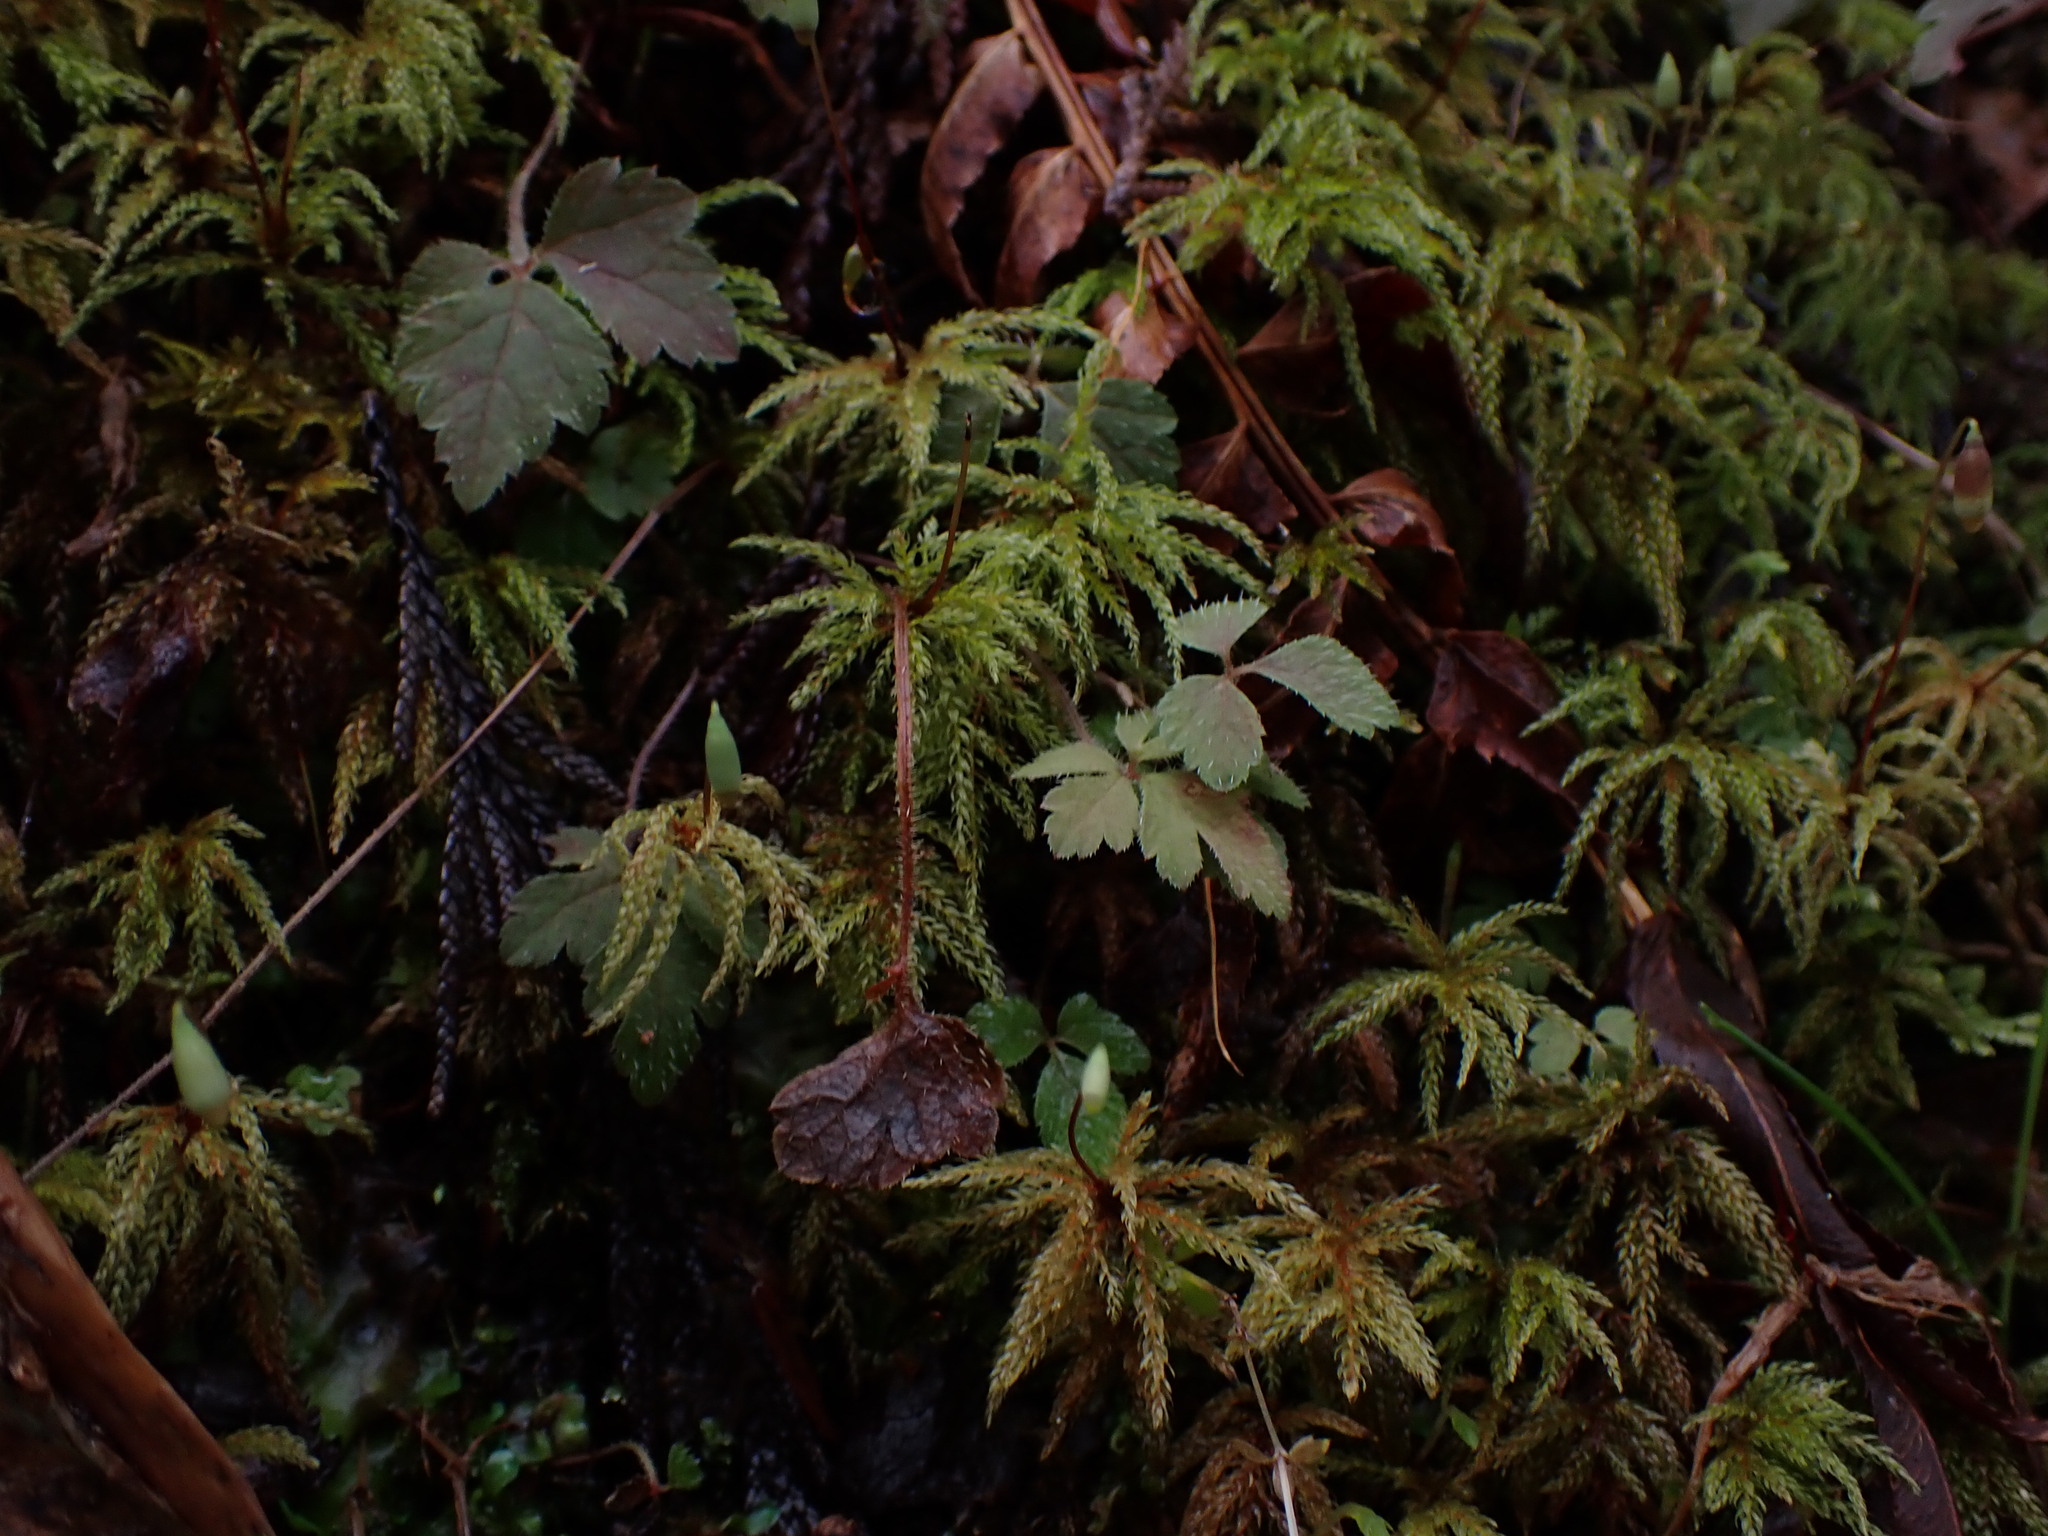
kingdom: Plantae
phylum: Bryophyta
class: Bryopsida
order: Bryales
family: Mniaceae
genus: Leucolepis
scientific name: Leucolepis acanthoneura
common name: Leucolepis umbrella moss
